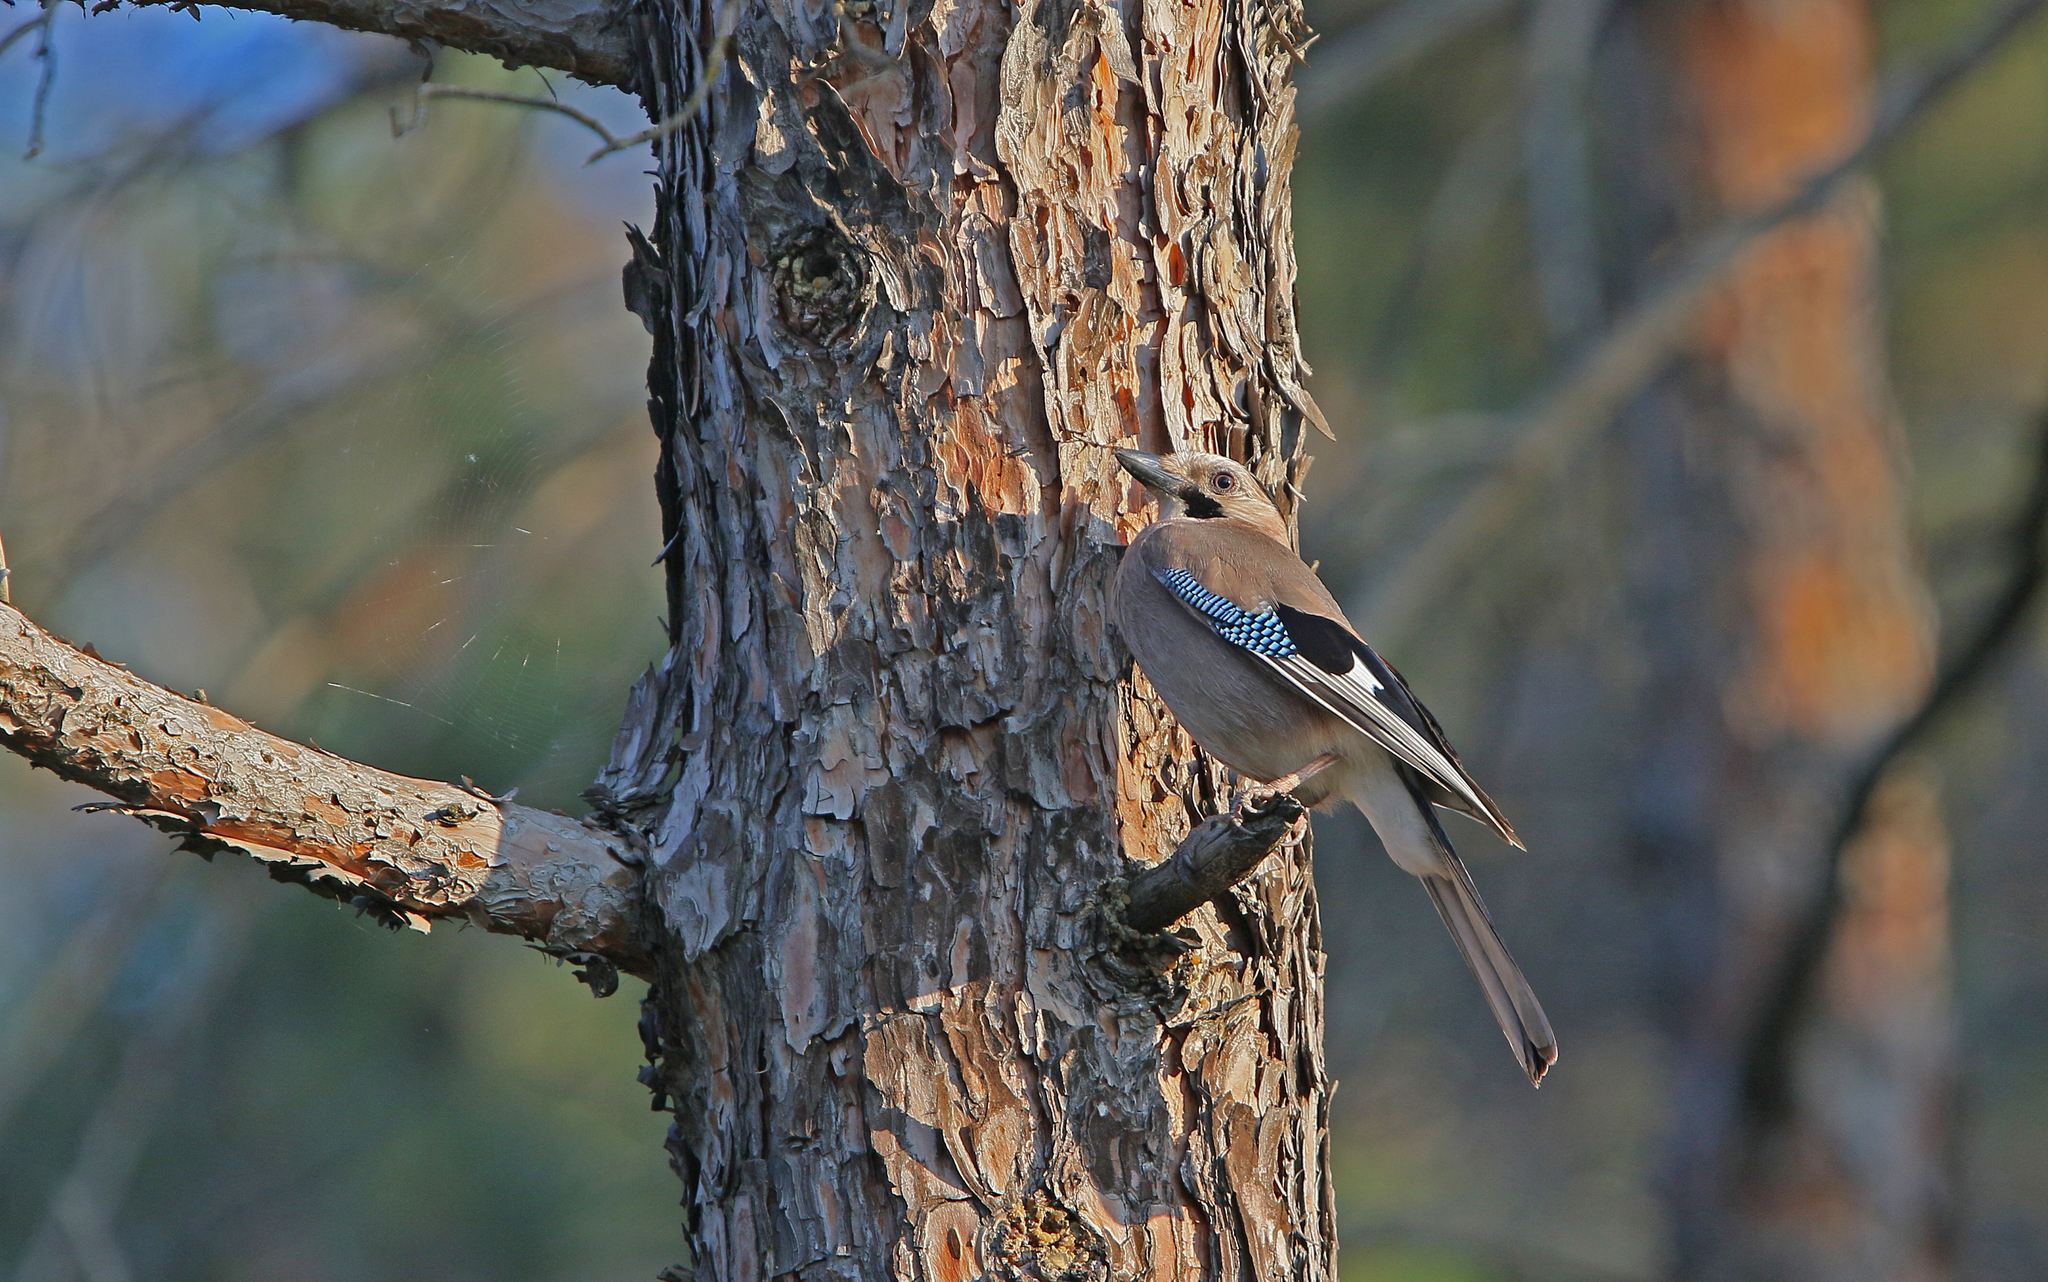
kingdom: Animalia
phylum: Chordata
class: Aves
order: Passeriformes
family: Corvidae
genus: Garrulus
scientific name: Garrulus glandarius
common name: Eurasian jay
